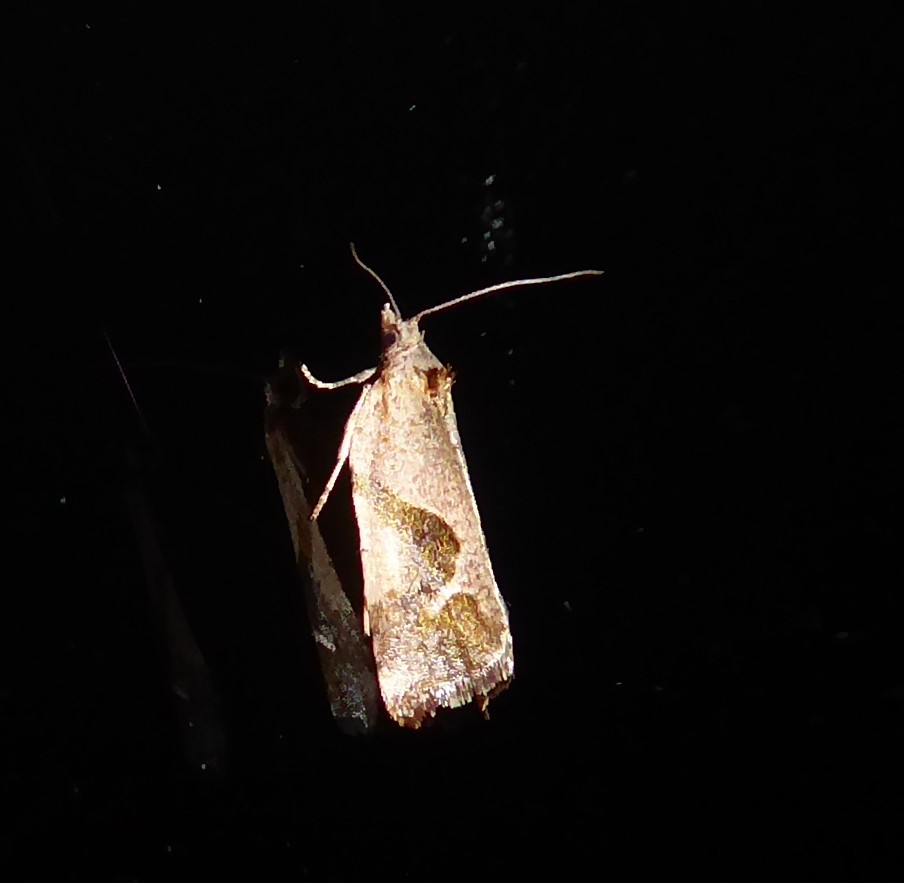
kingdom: Animalia
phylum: Arthropoda
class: Insecta
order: Lepidoptera
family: Tortricidae
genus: Pyrgotis
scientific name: Pyrgotis plagiatana
